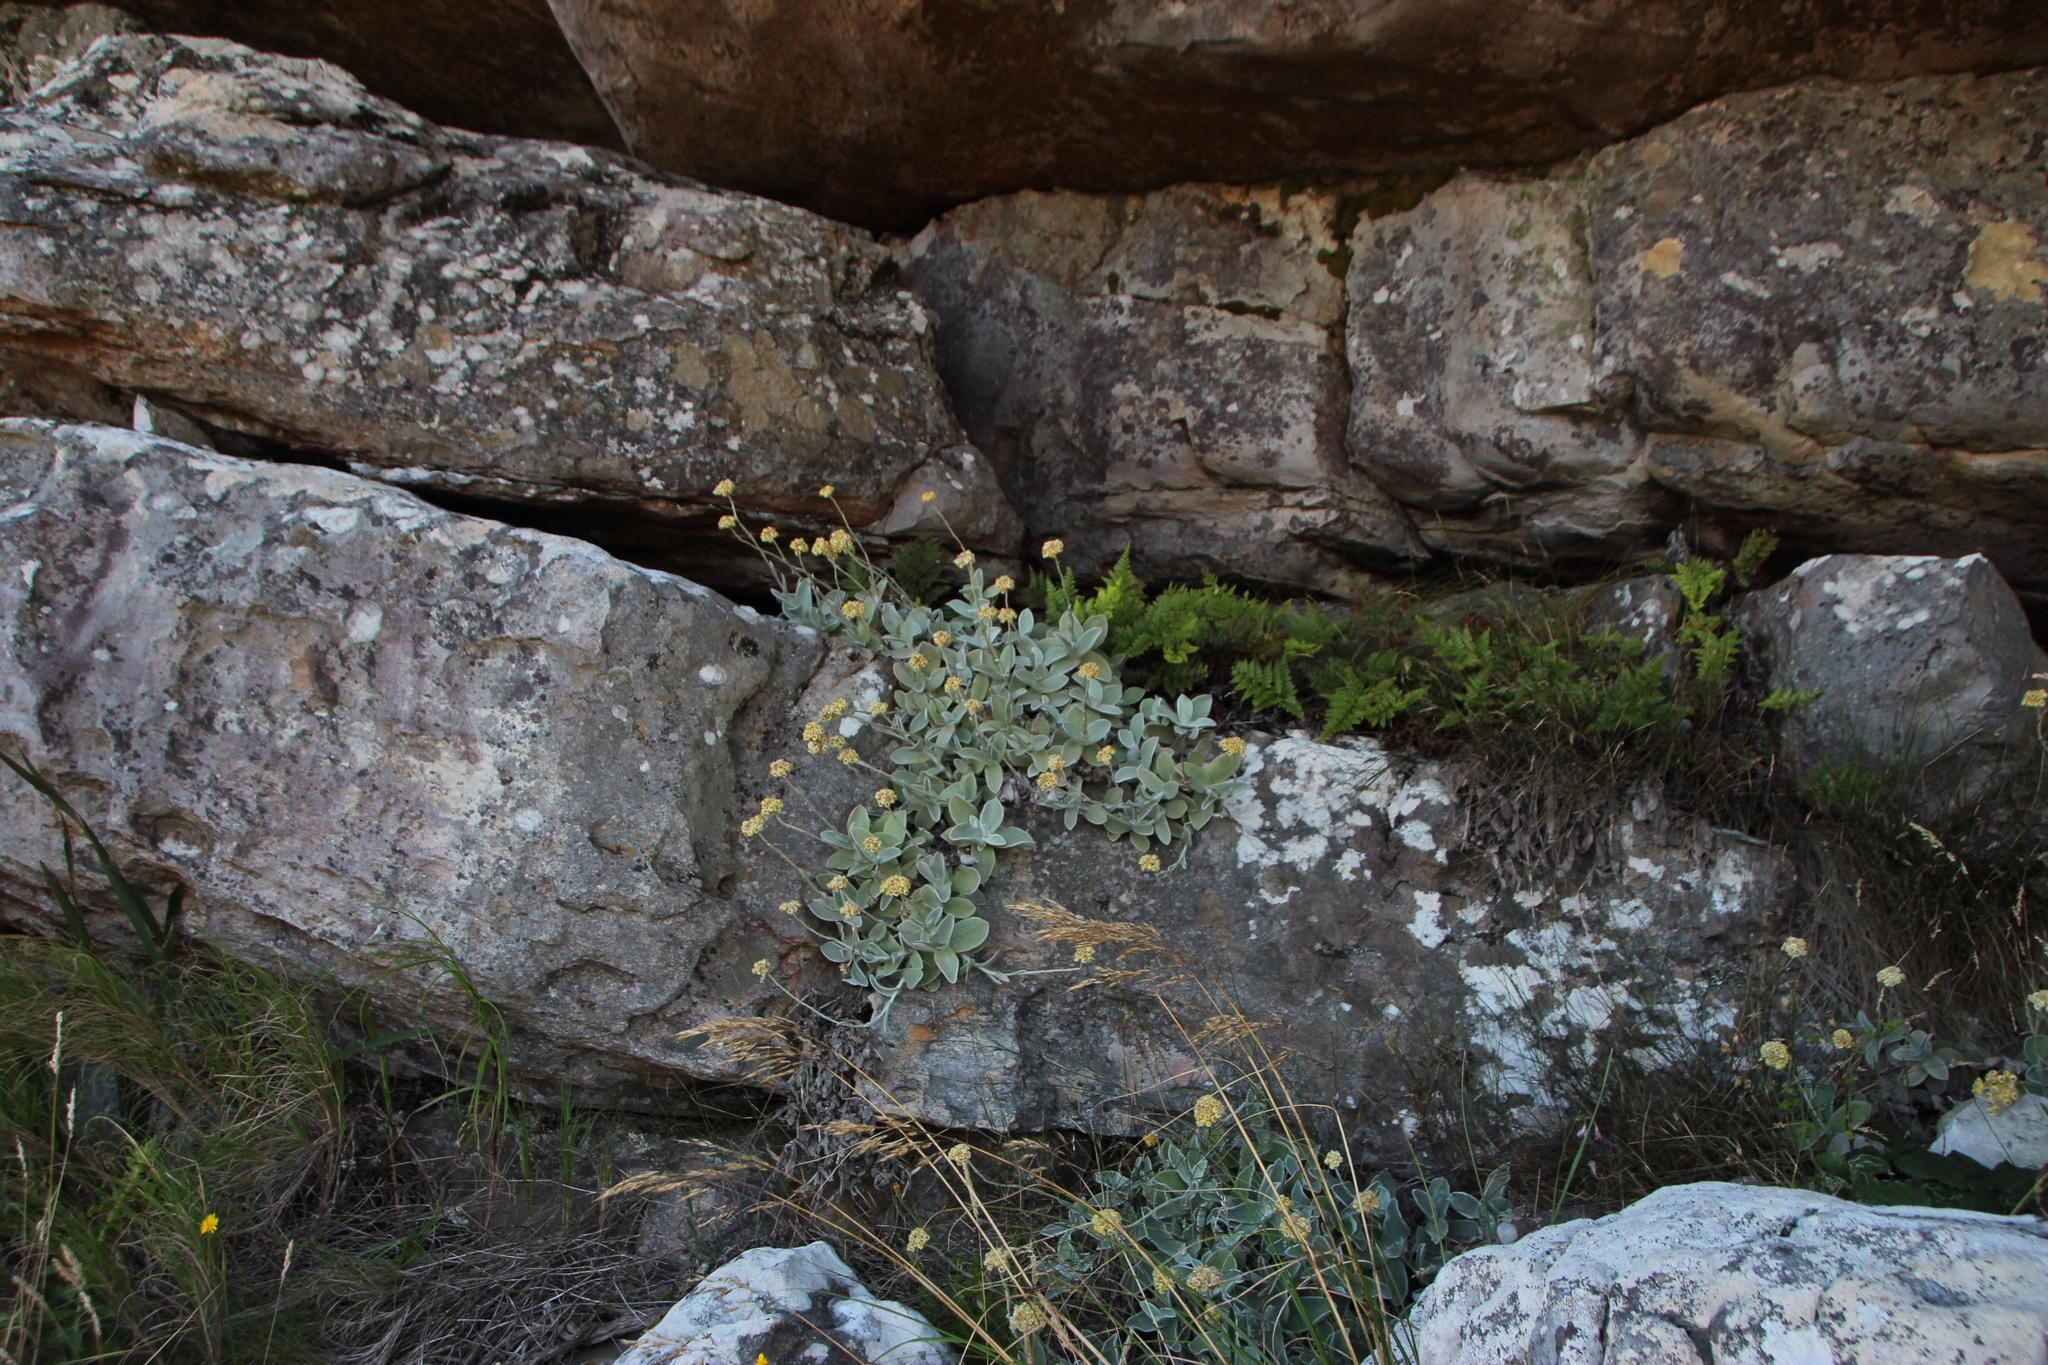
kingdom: Plantae
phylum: Tracheophyta
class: Magnoliopsida
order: Asterales
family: Asteraceae
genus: Helichrysum
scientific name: Helichrysum grandiflorum
